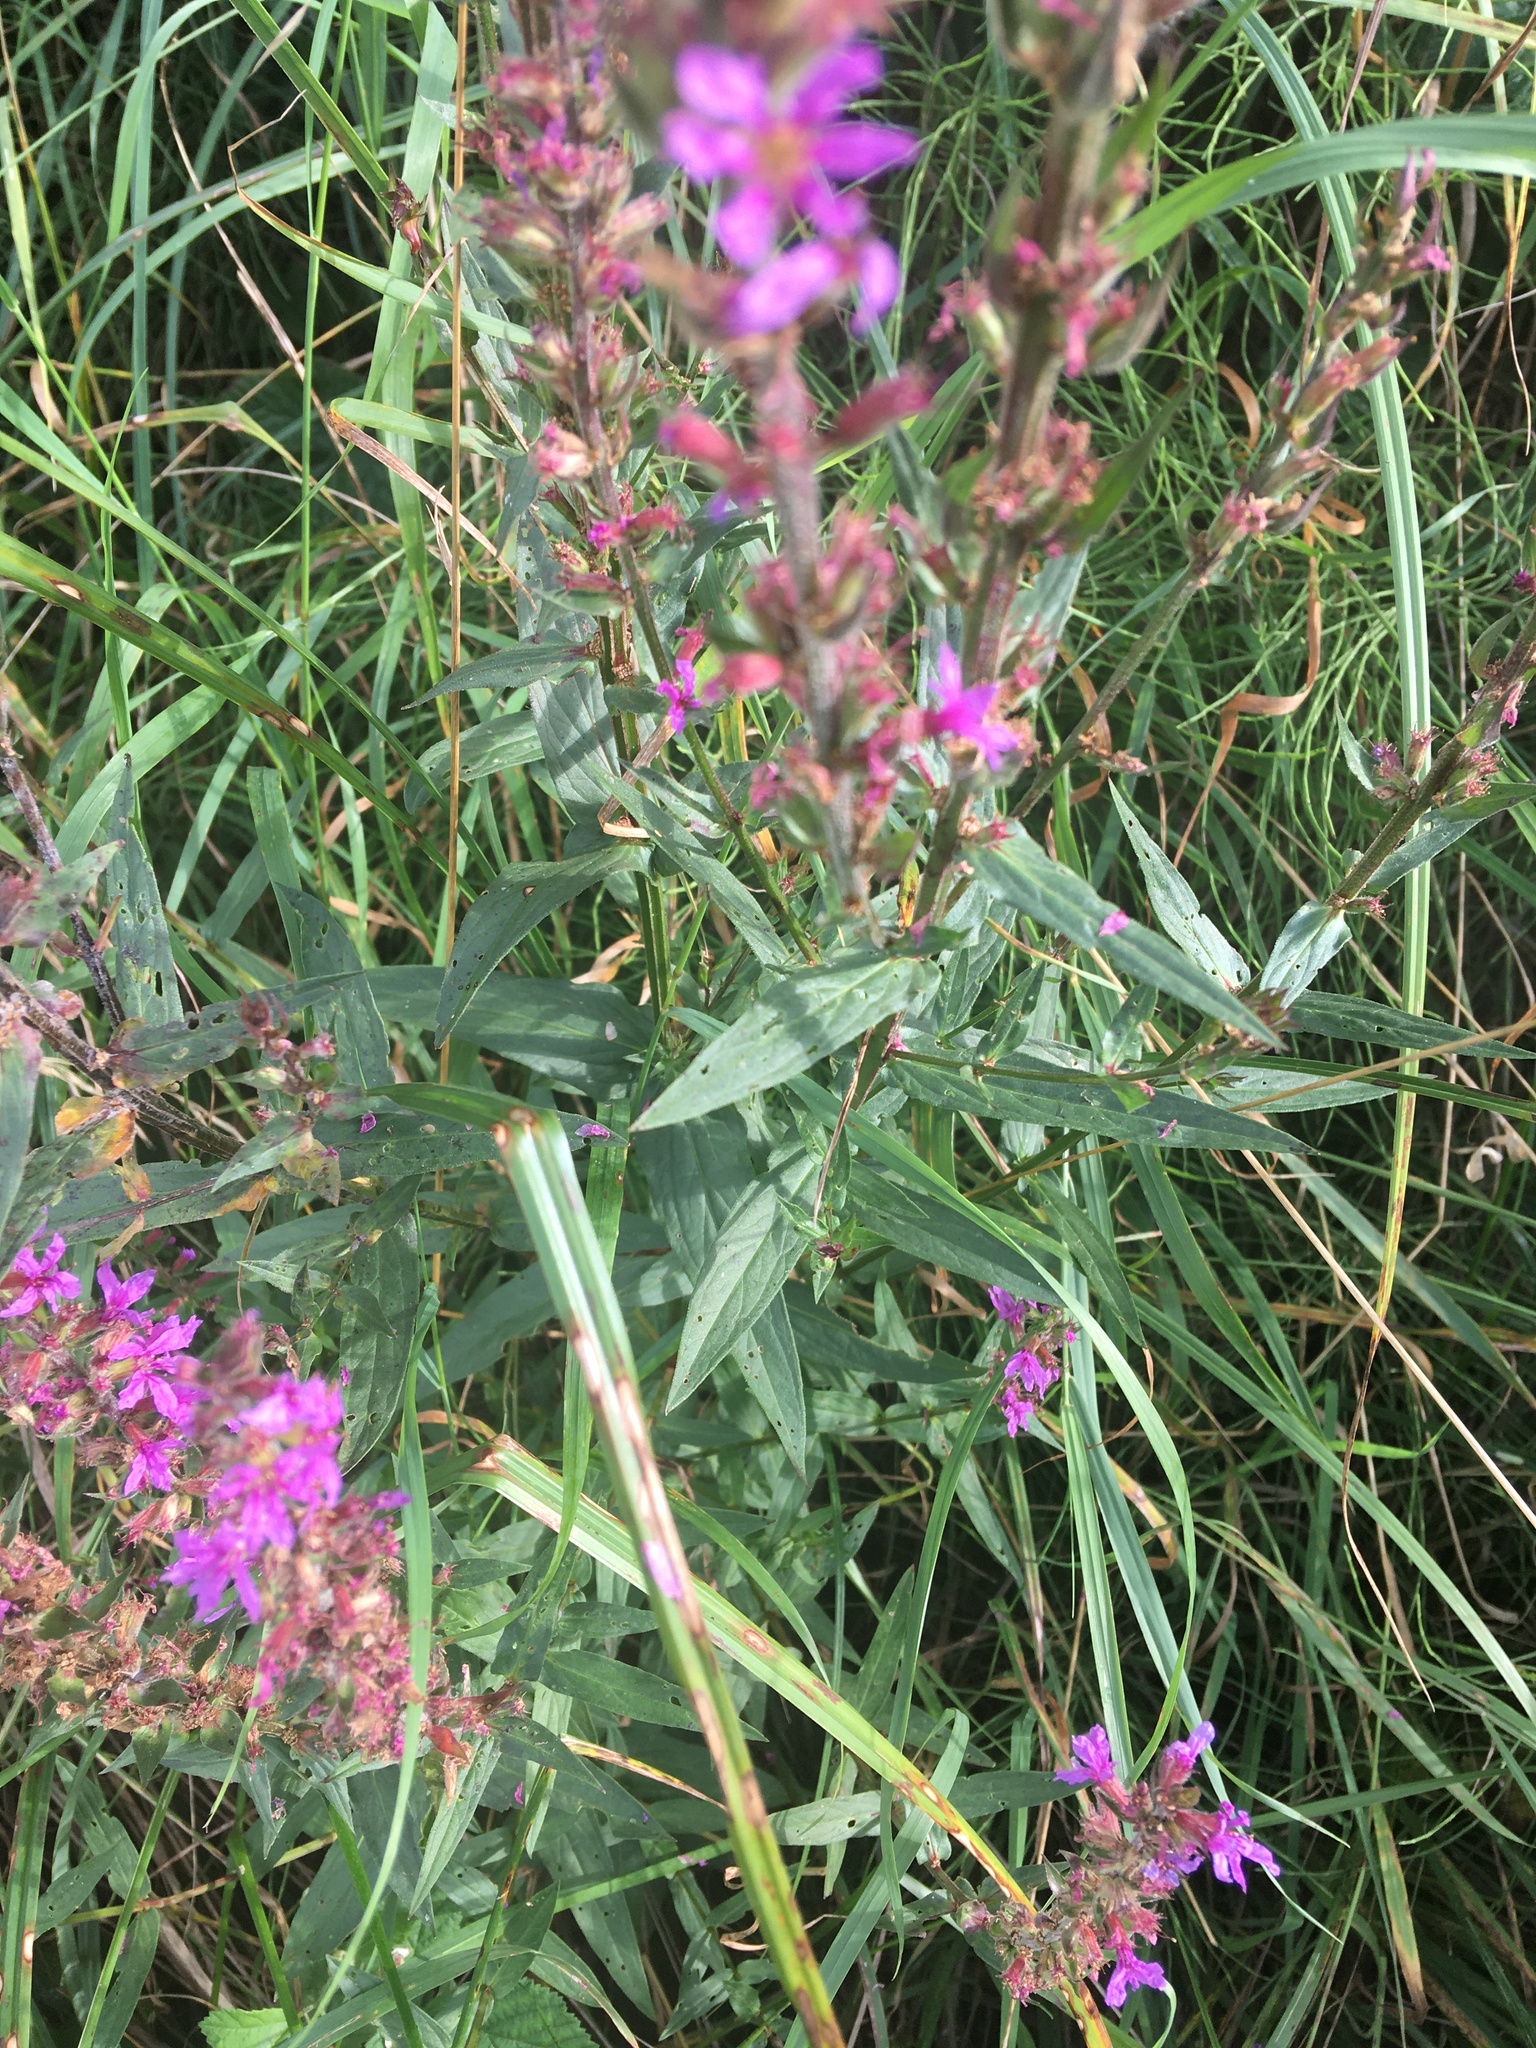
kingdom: Plantae
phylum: Tracheophyta
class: Magnoliopsida
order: Myrtales
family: Lythraceae
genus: Lythrum
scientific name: Lythrum salicaria
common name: Purple loosestrife
